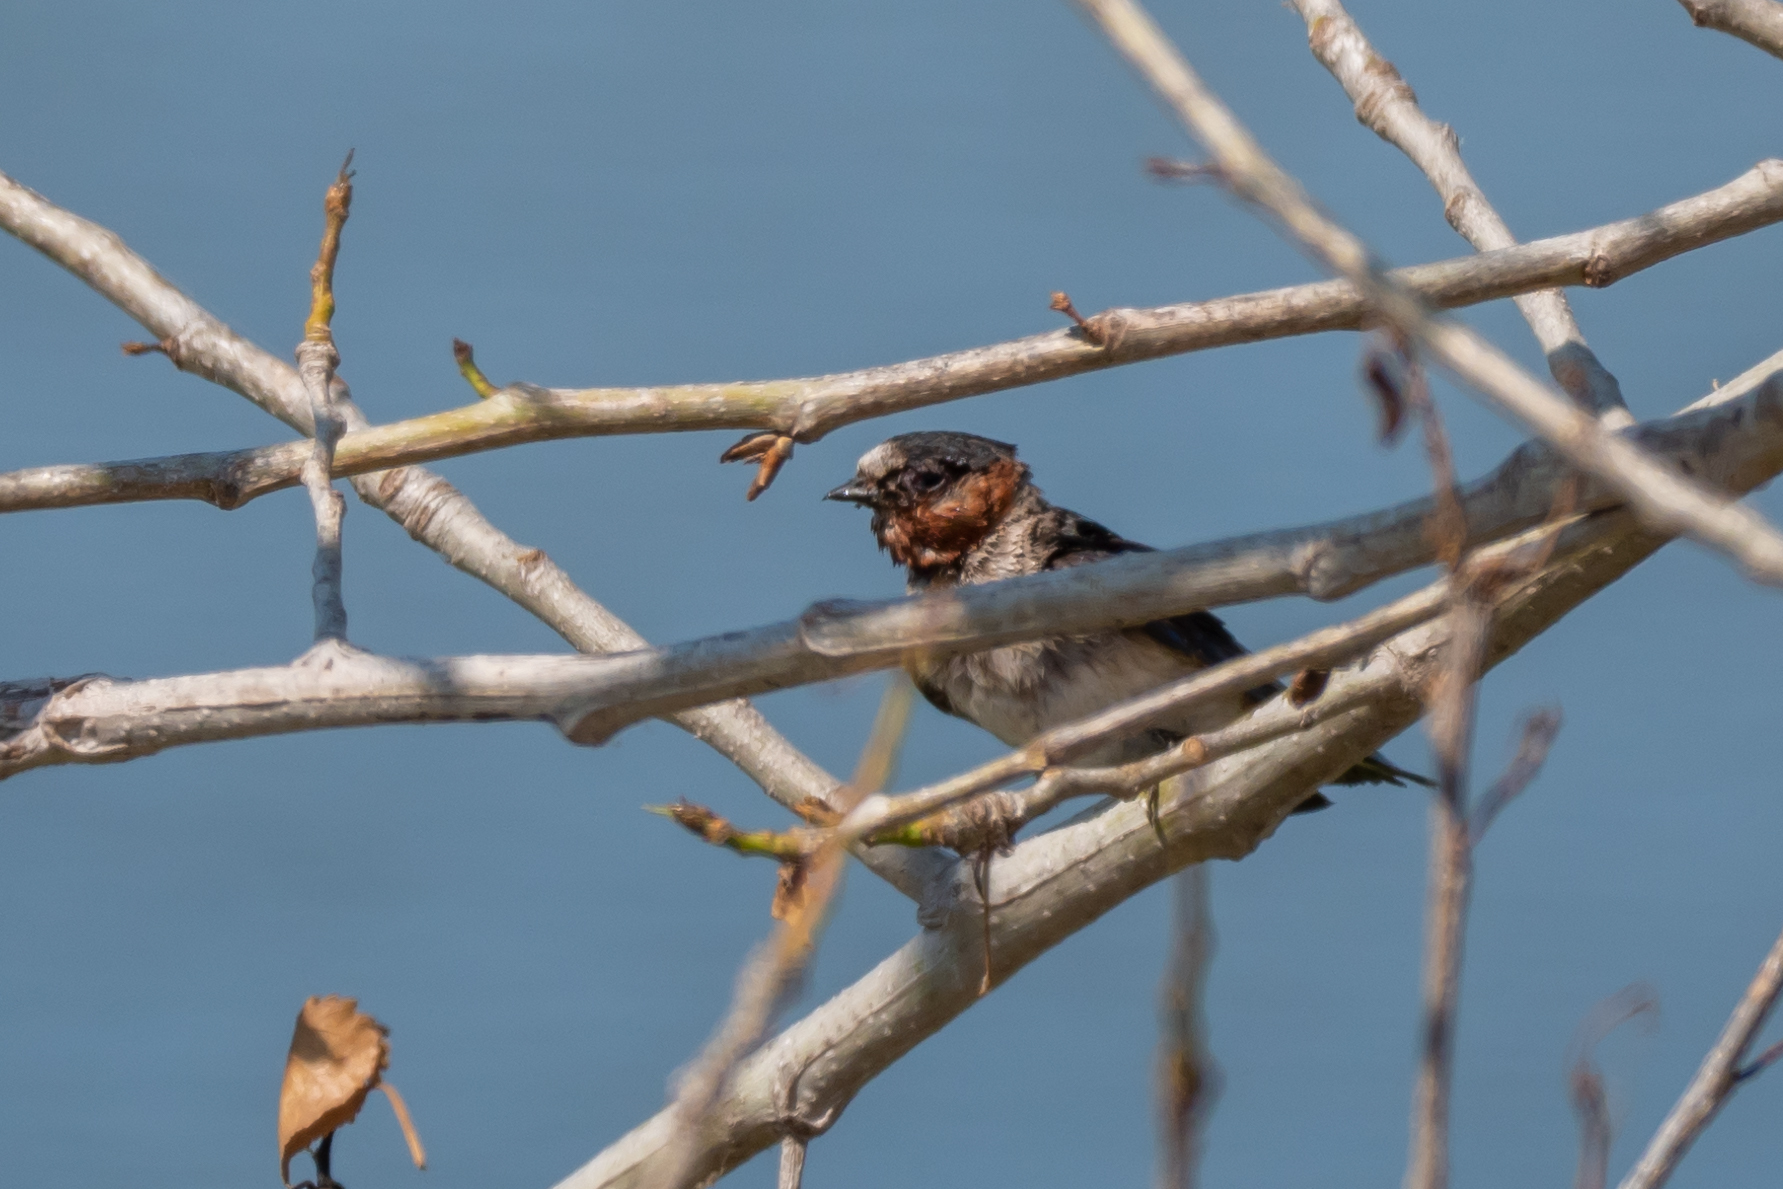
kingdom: Animalia
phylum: Chordata
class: Aves
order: Passeriformes
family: Hirundinidae
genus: Petrochelidon
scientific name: Petrochelidon pyrrhonota
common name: American cliff swallow
